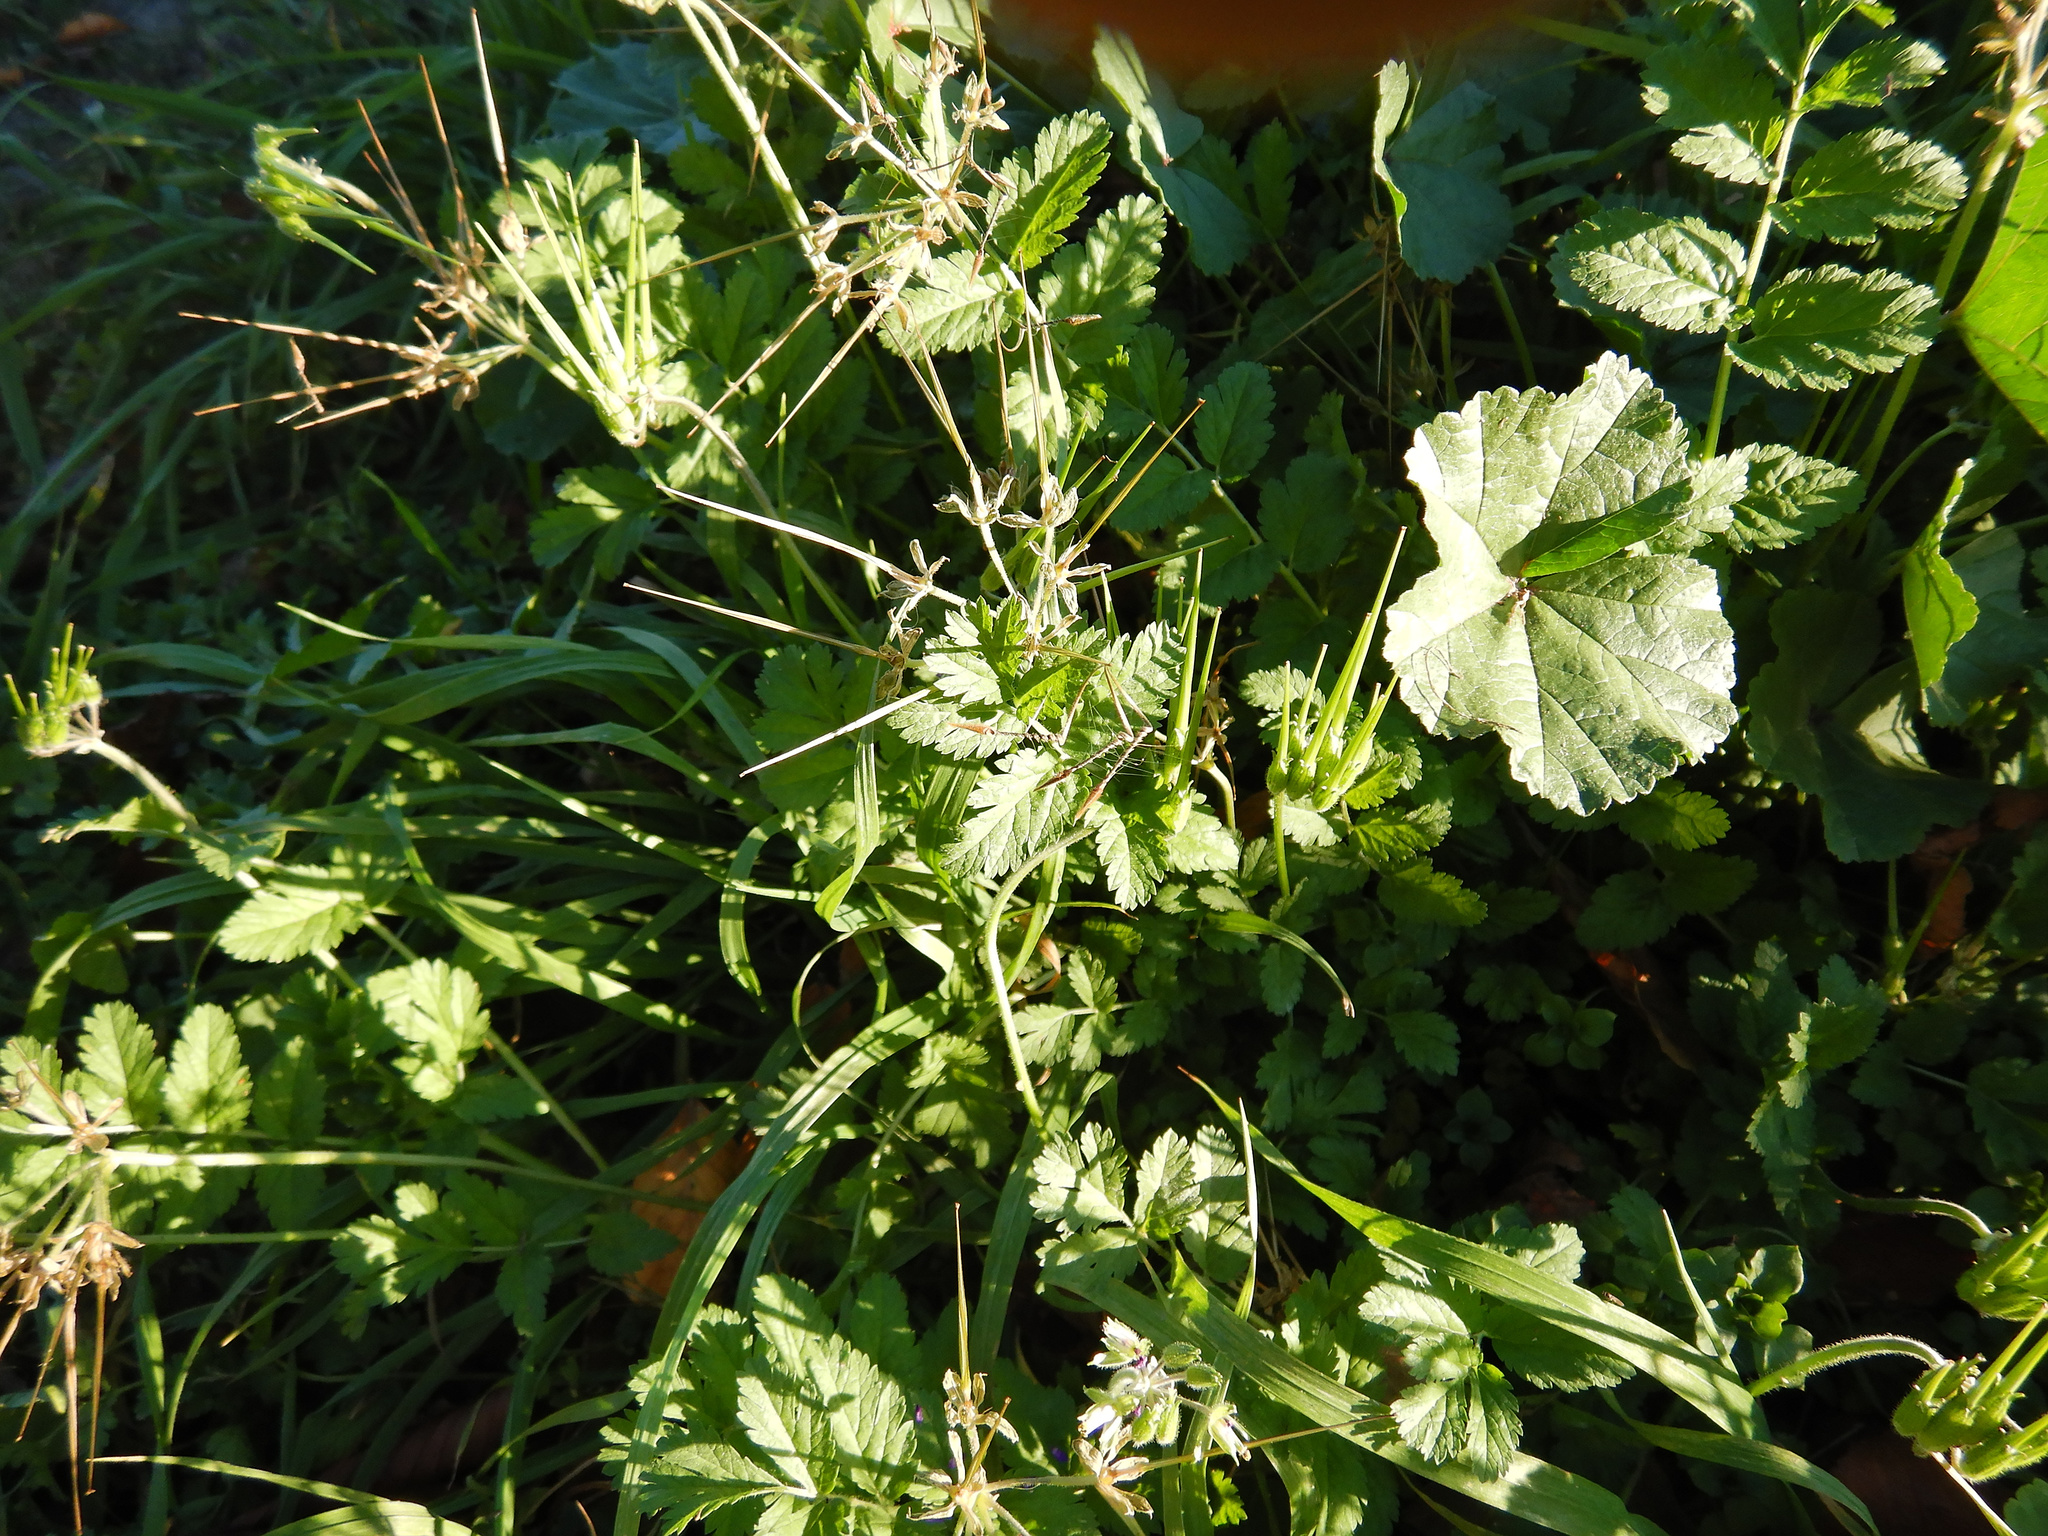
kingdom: Plantae
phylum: Tracheophyta
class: Magnoliopsida
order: Geraniales
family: Geraniaceae
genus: Erodium
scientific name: Erodium moschatum
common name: Musk stork's-bill
